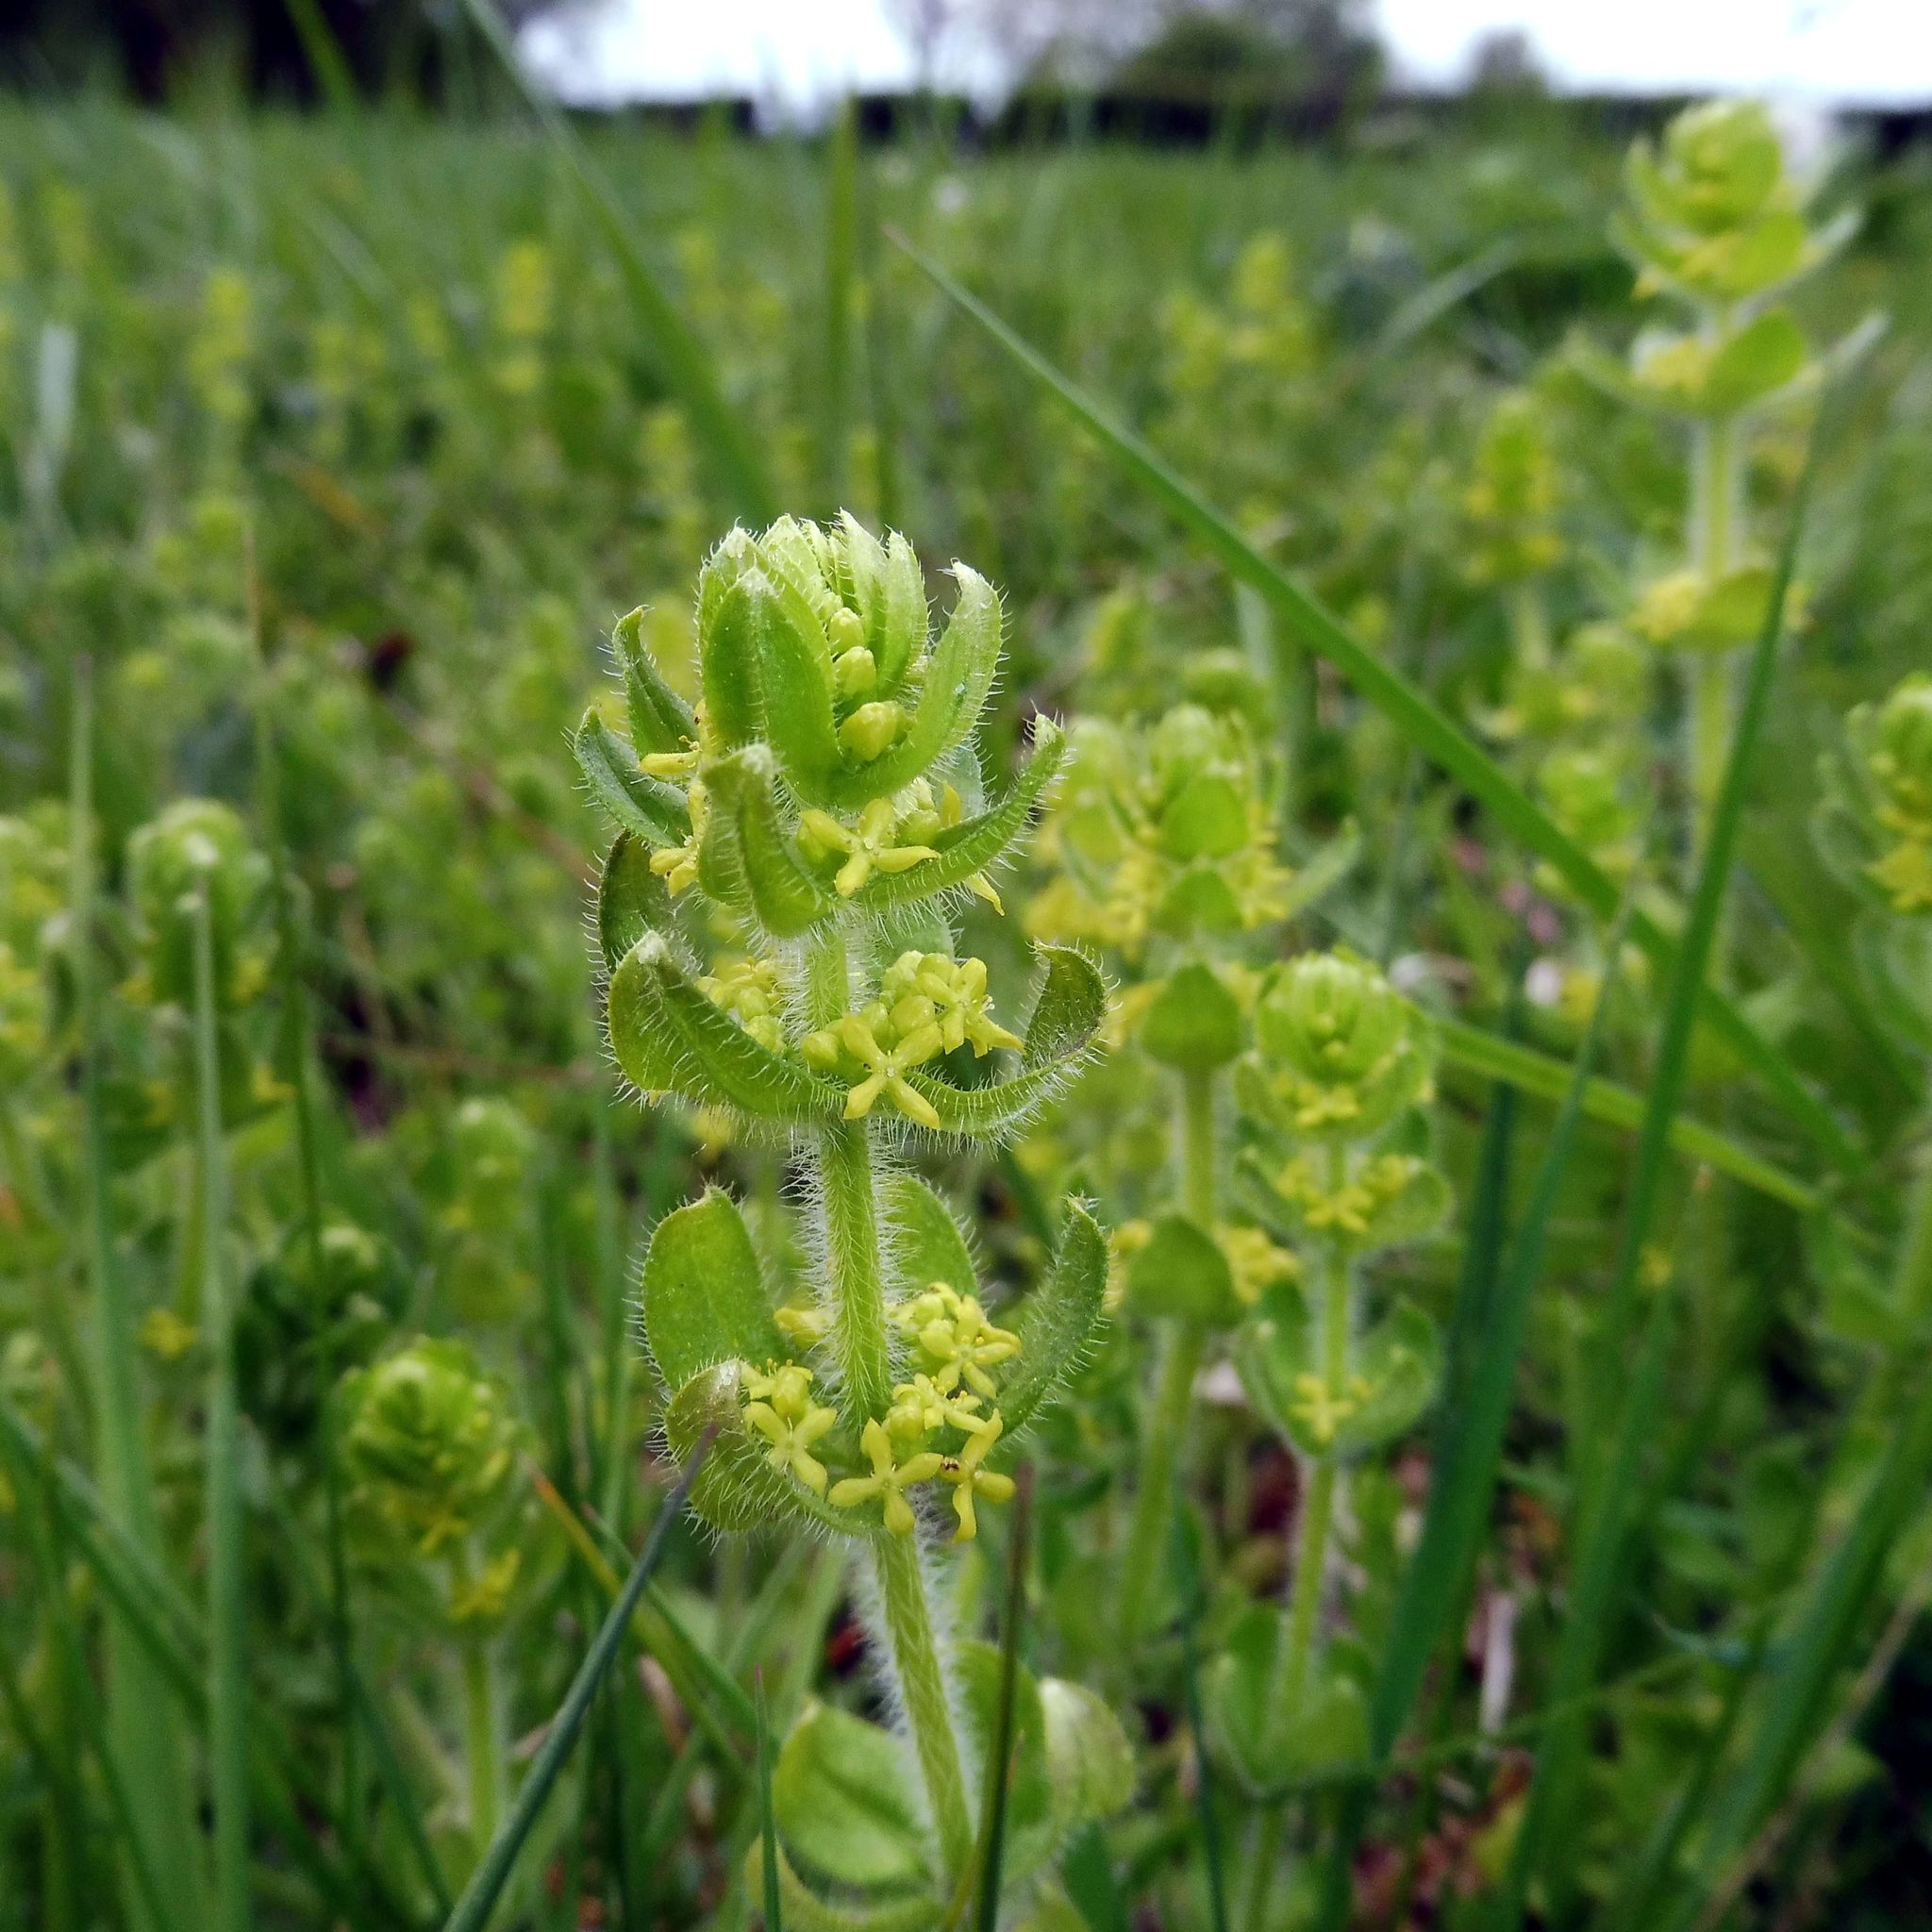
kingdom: Plantae
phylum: Tracheophyta
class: Magnoliopsida
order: Gentianales
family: Rubiaceae
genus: Cruciata
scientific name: Cruciata laevipes
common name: Crosswort
